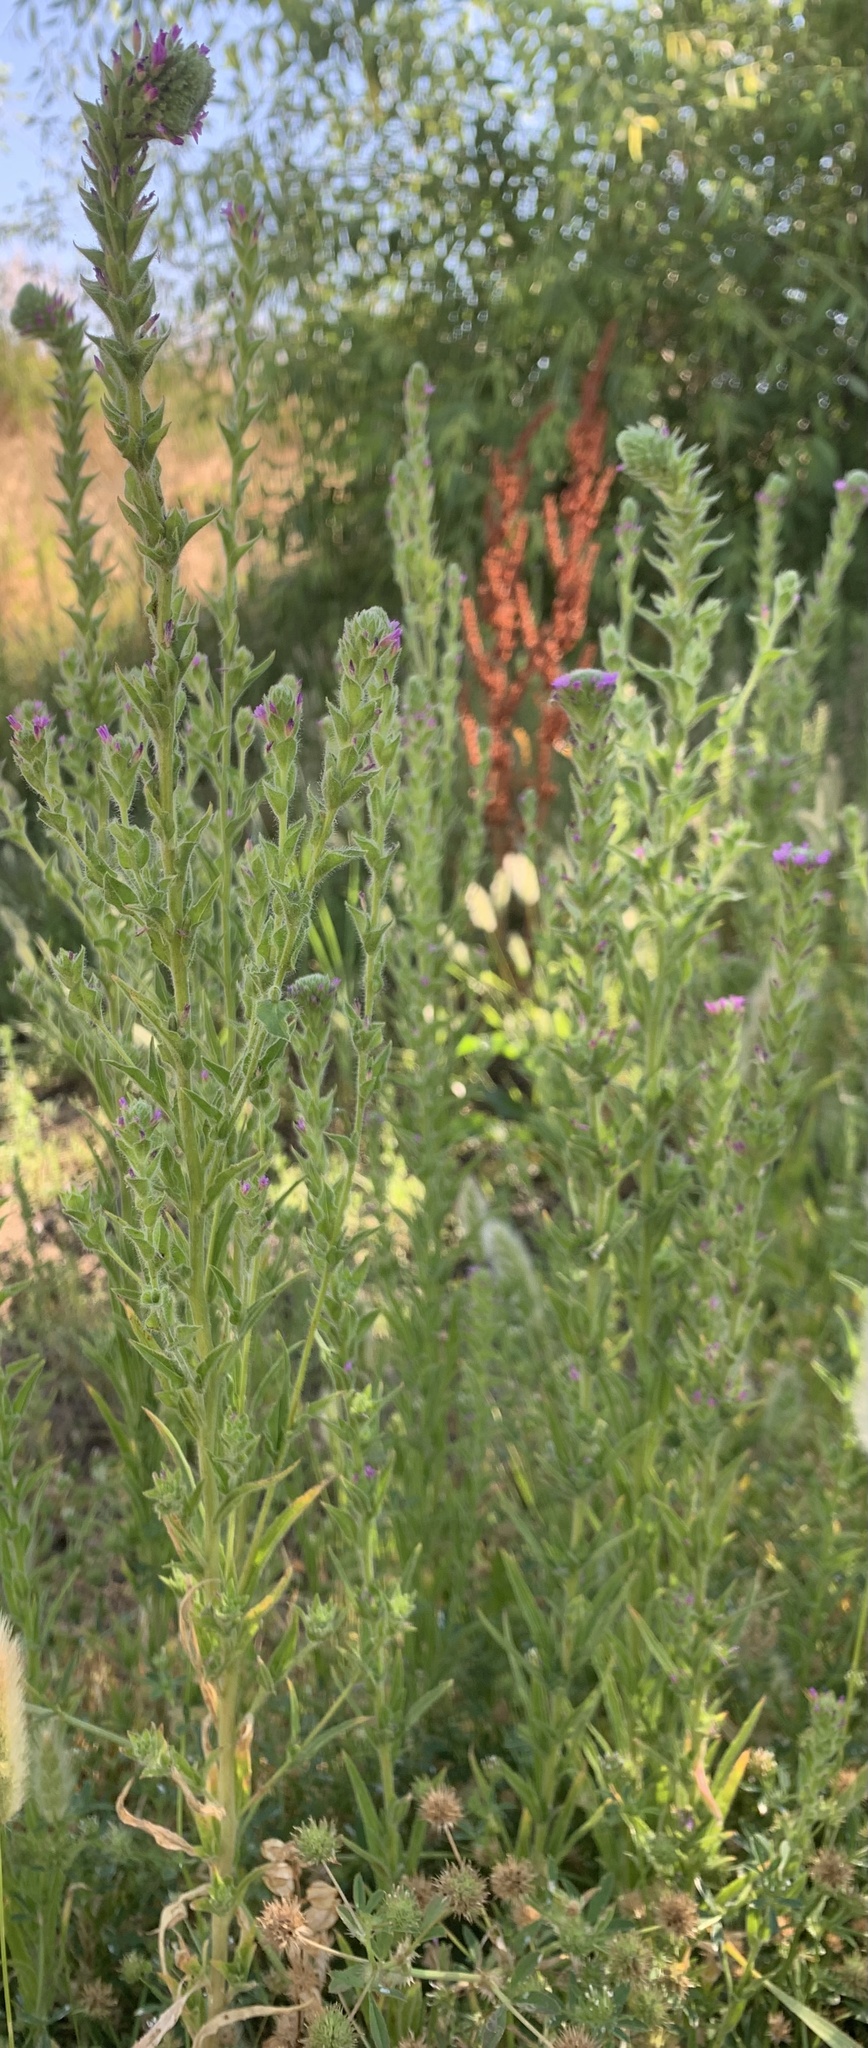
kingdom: Plantae
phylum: Tracheophyta
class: Magnoliopsida
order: Myrtales
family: Onagraceae
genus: Epilobium
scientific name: Epilobium densiflorum
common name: Dense spike-primrose
